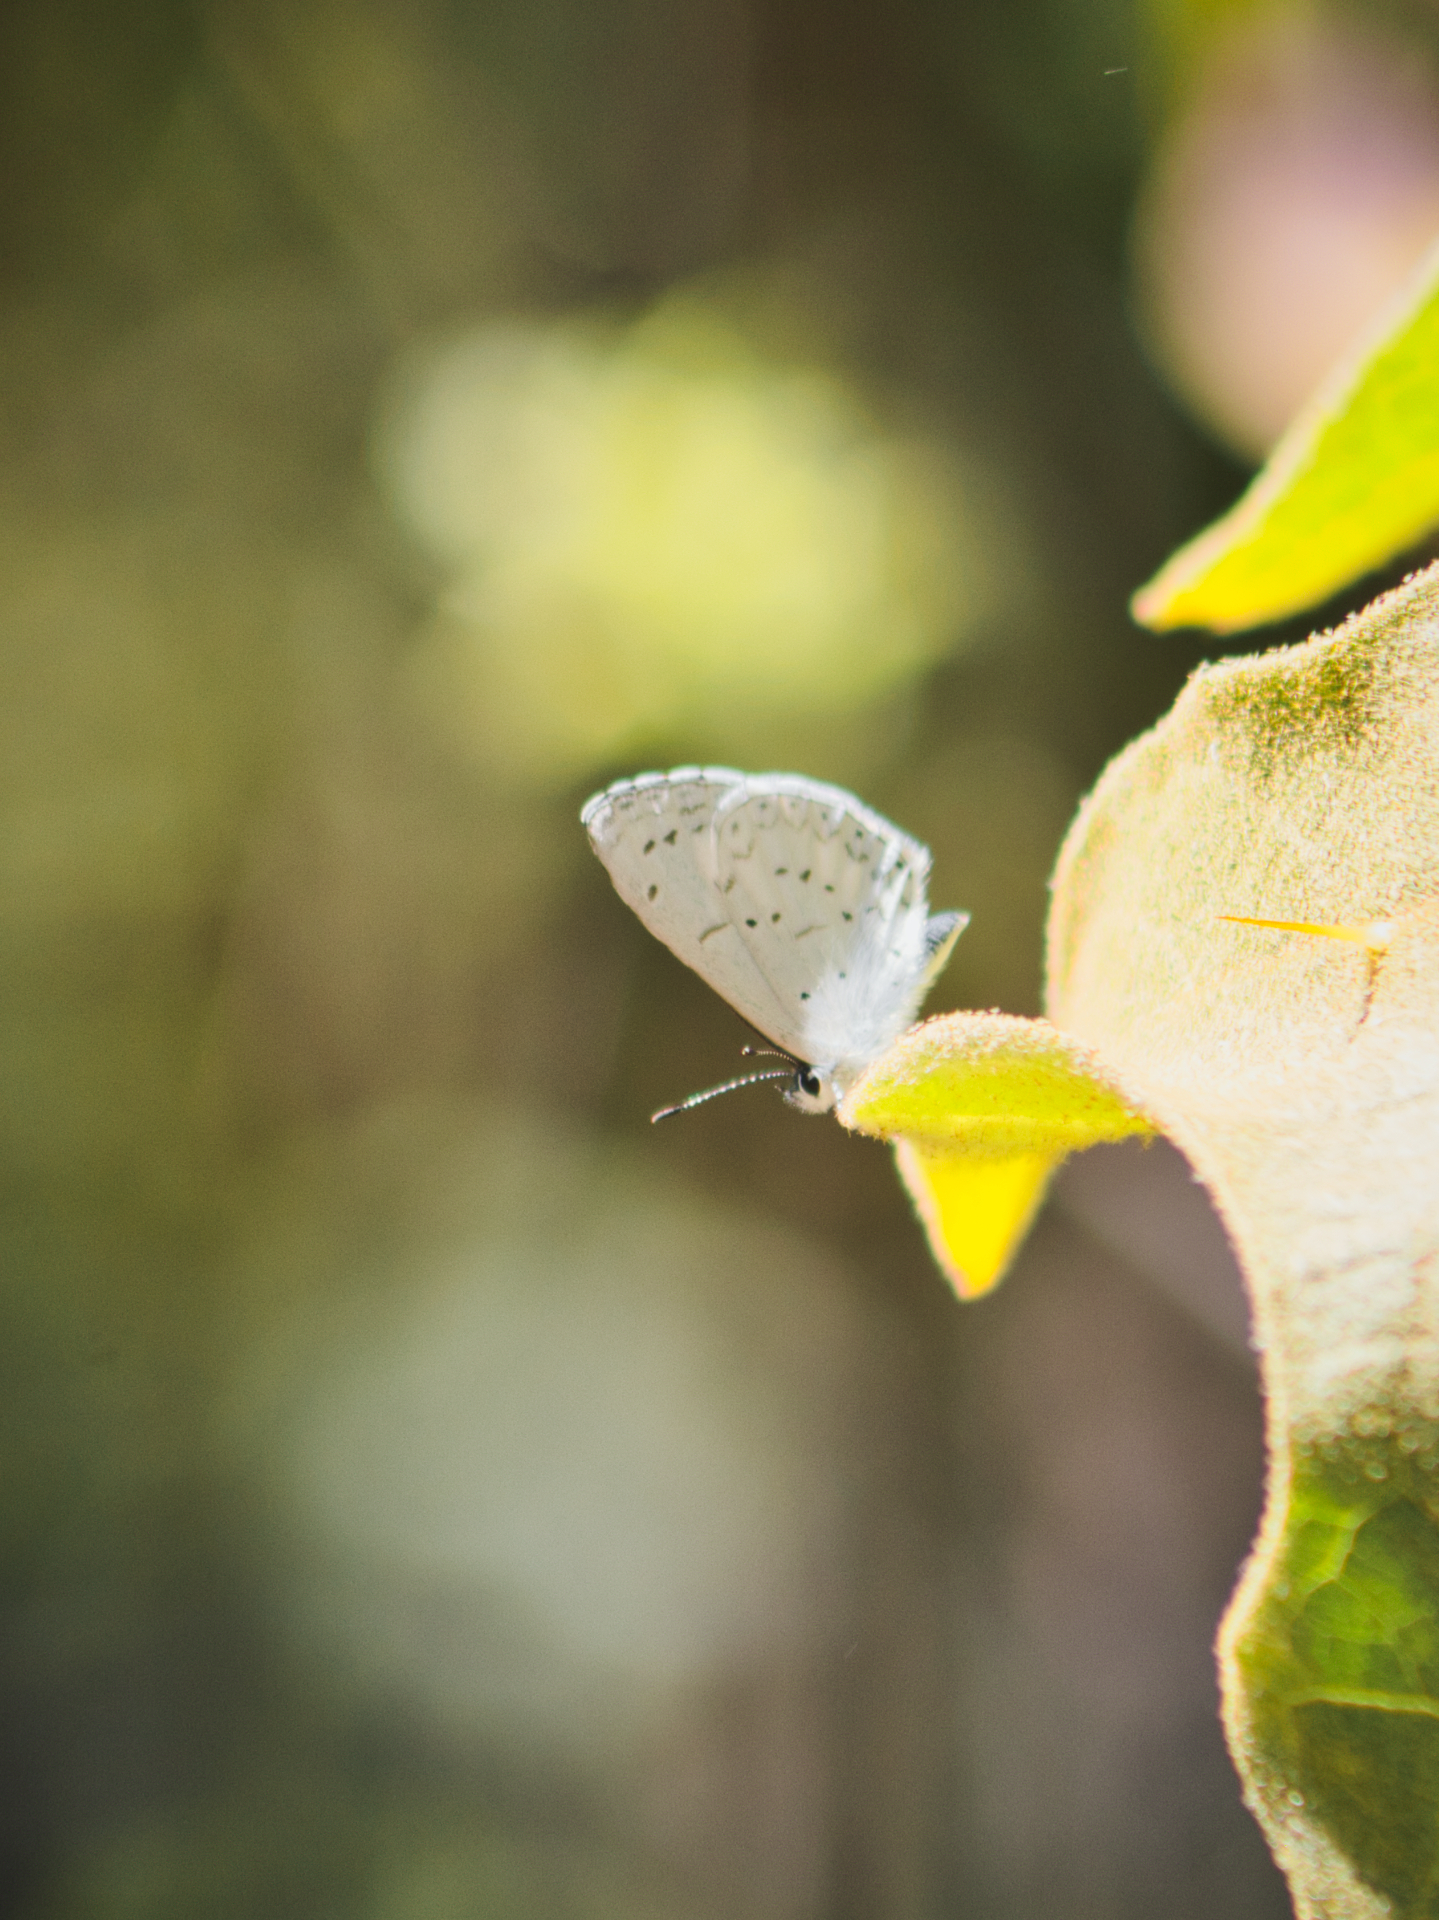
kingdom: Animalia
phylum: Arthropoda
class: Insecta
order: Lepidoptera
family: Lycaenidae
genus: Celastrina
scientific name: Celastrina ladon
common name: Spring azure
